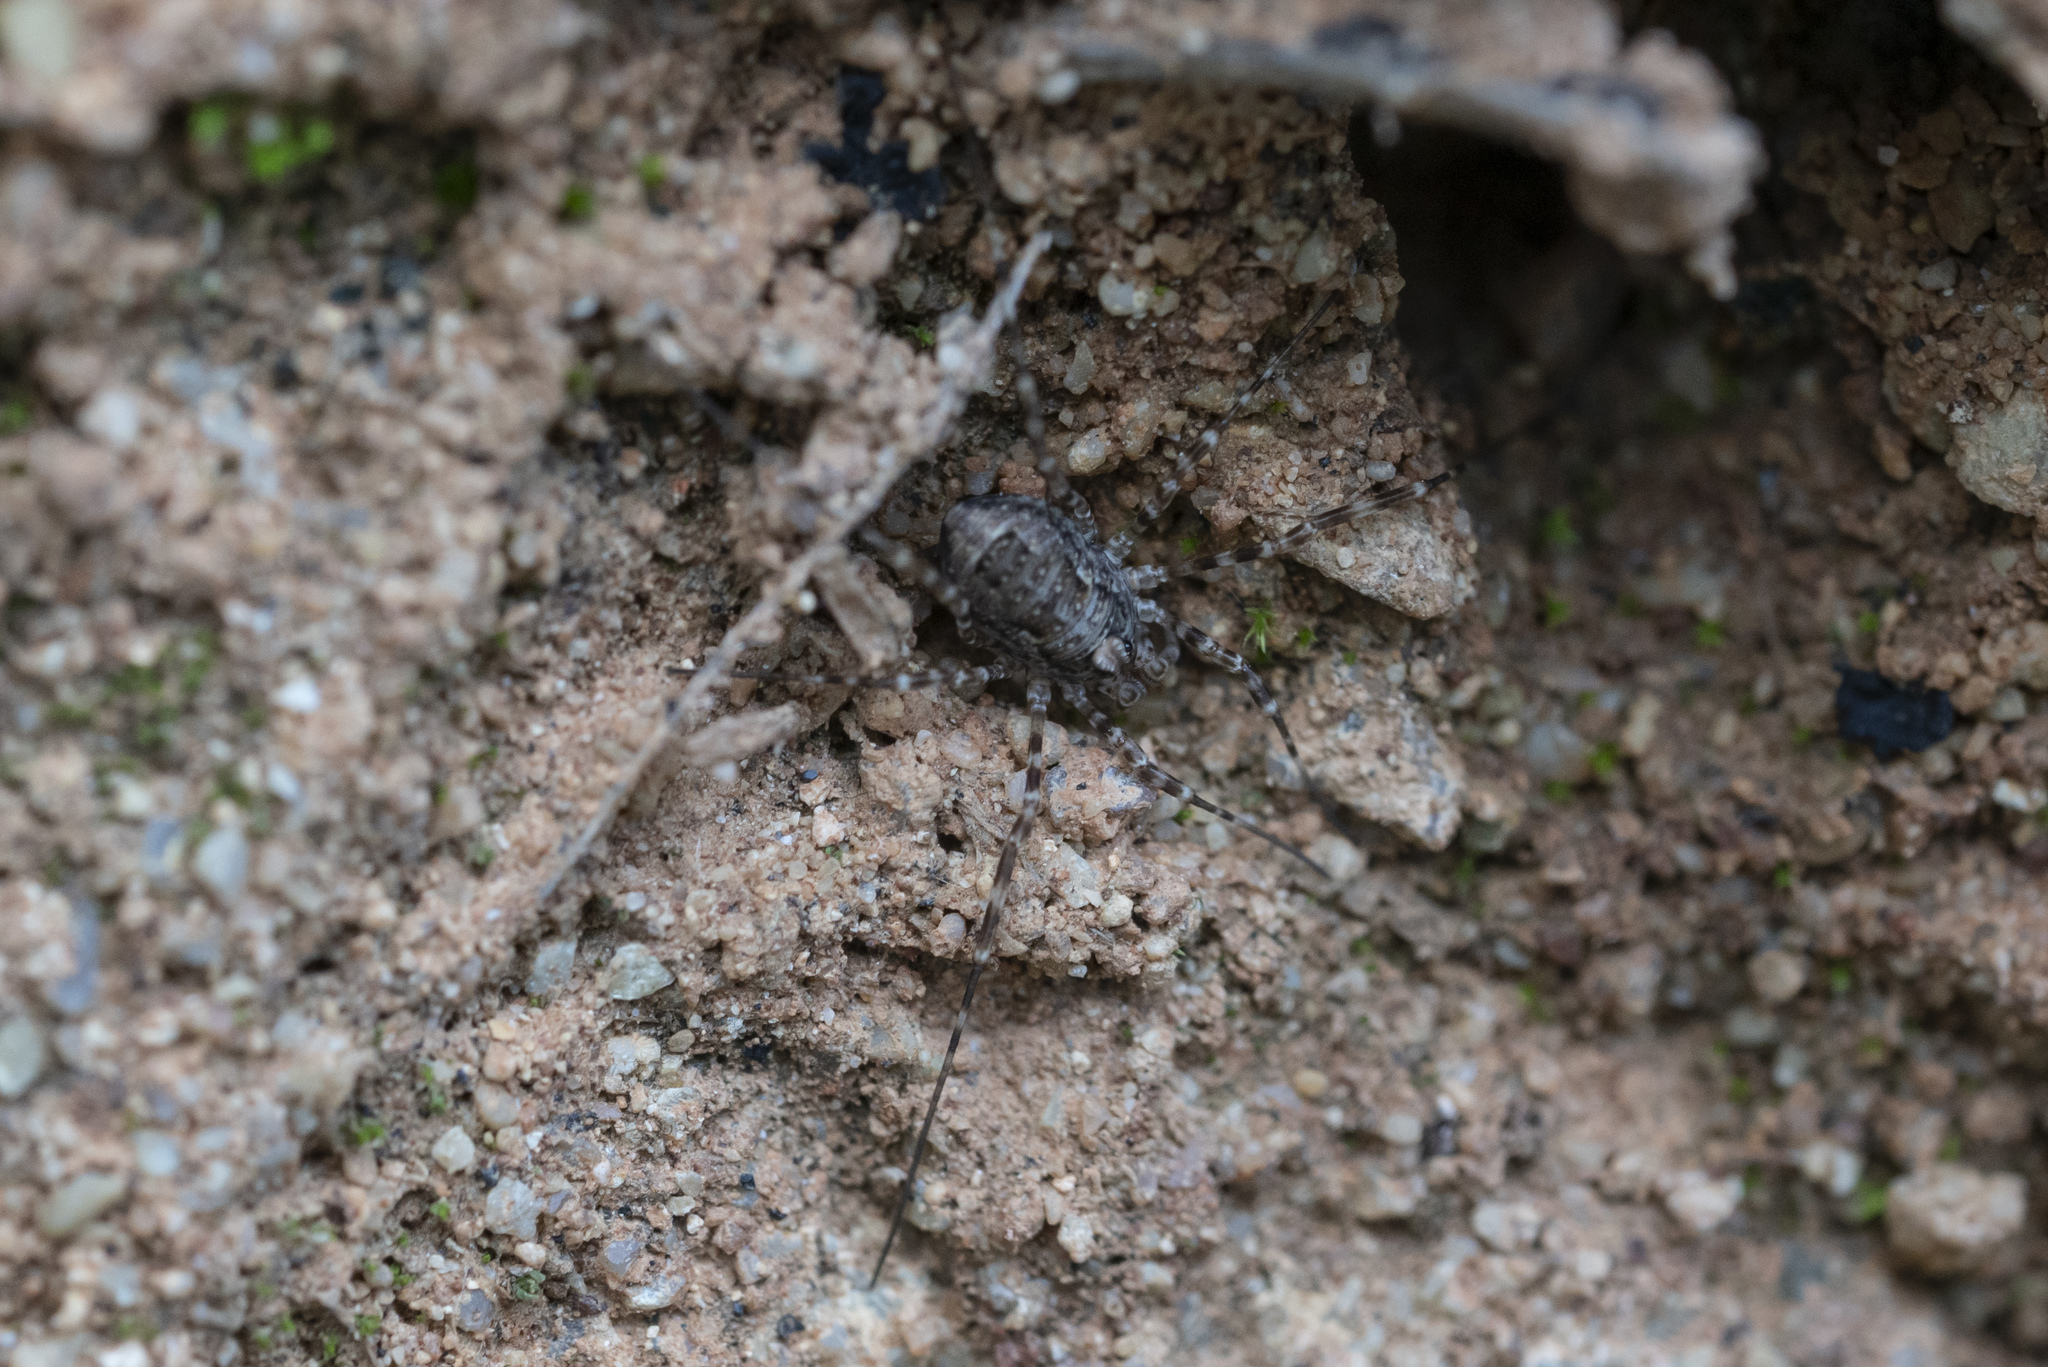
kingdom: Animalia
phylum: Arthropoda
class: Arachnida
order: Opiliones
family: Phalangiidae
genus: Rafalskia
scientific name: Rafalskia cretica
